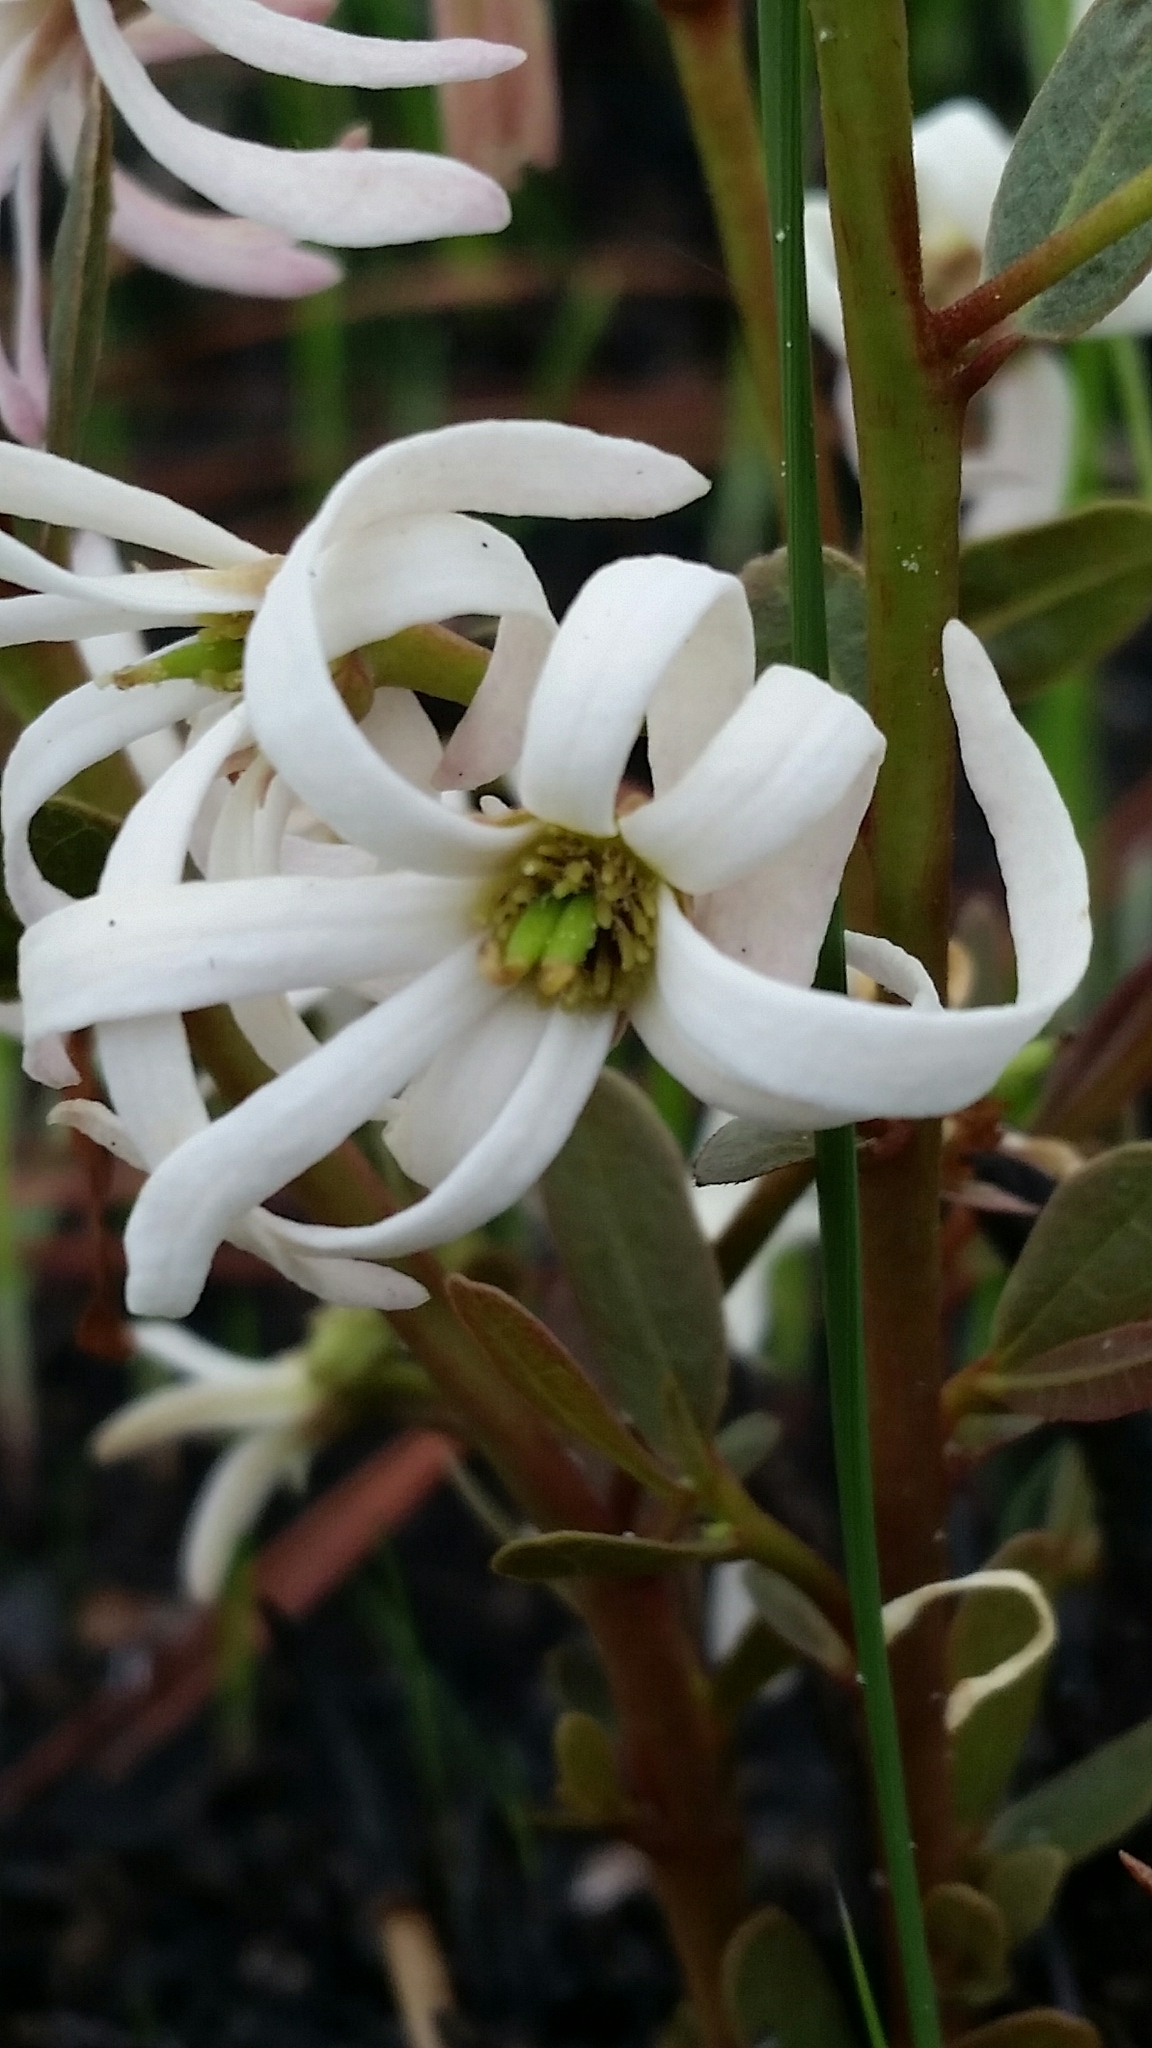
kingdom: Plantae
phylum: Tracheophyta
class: Magnoliopsida
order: Magnoliales
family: Annonaceae
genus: Asimina
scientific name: Asimina pulchella
